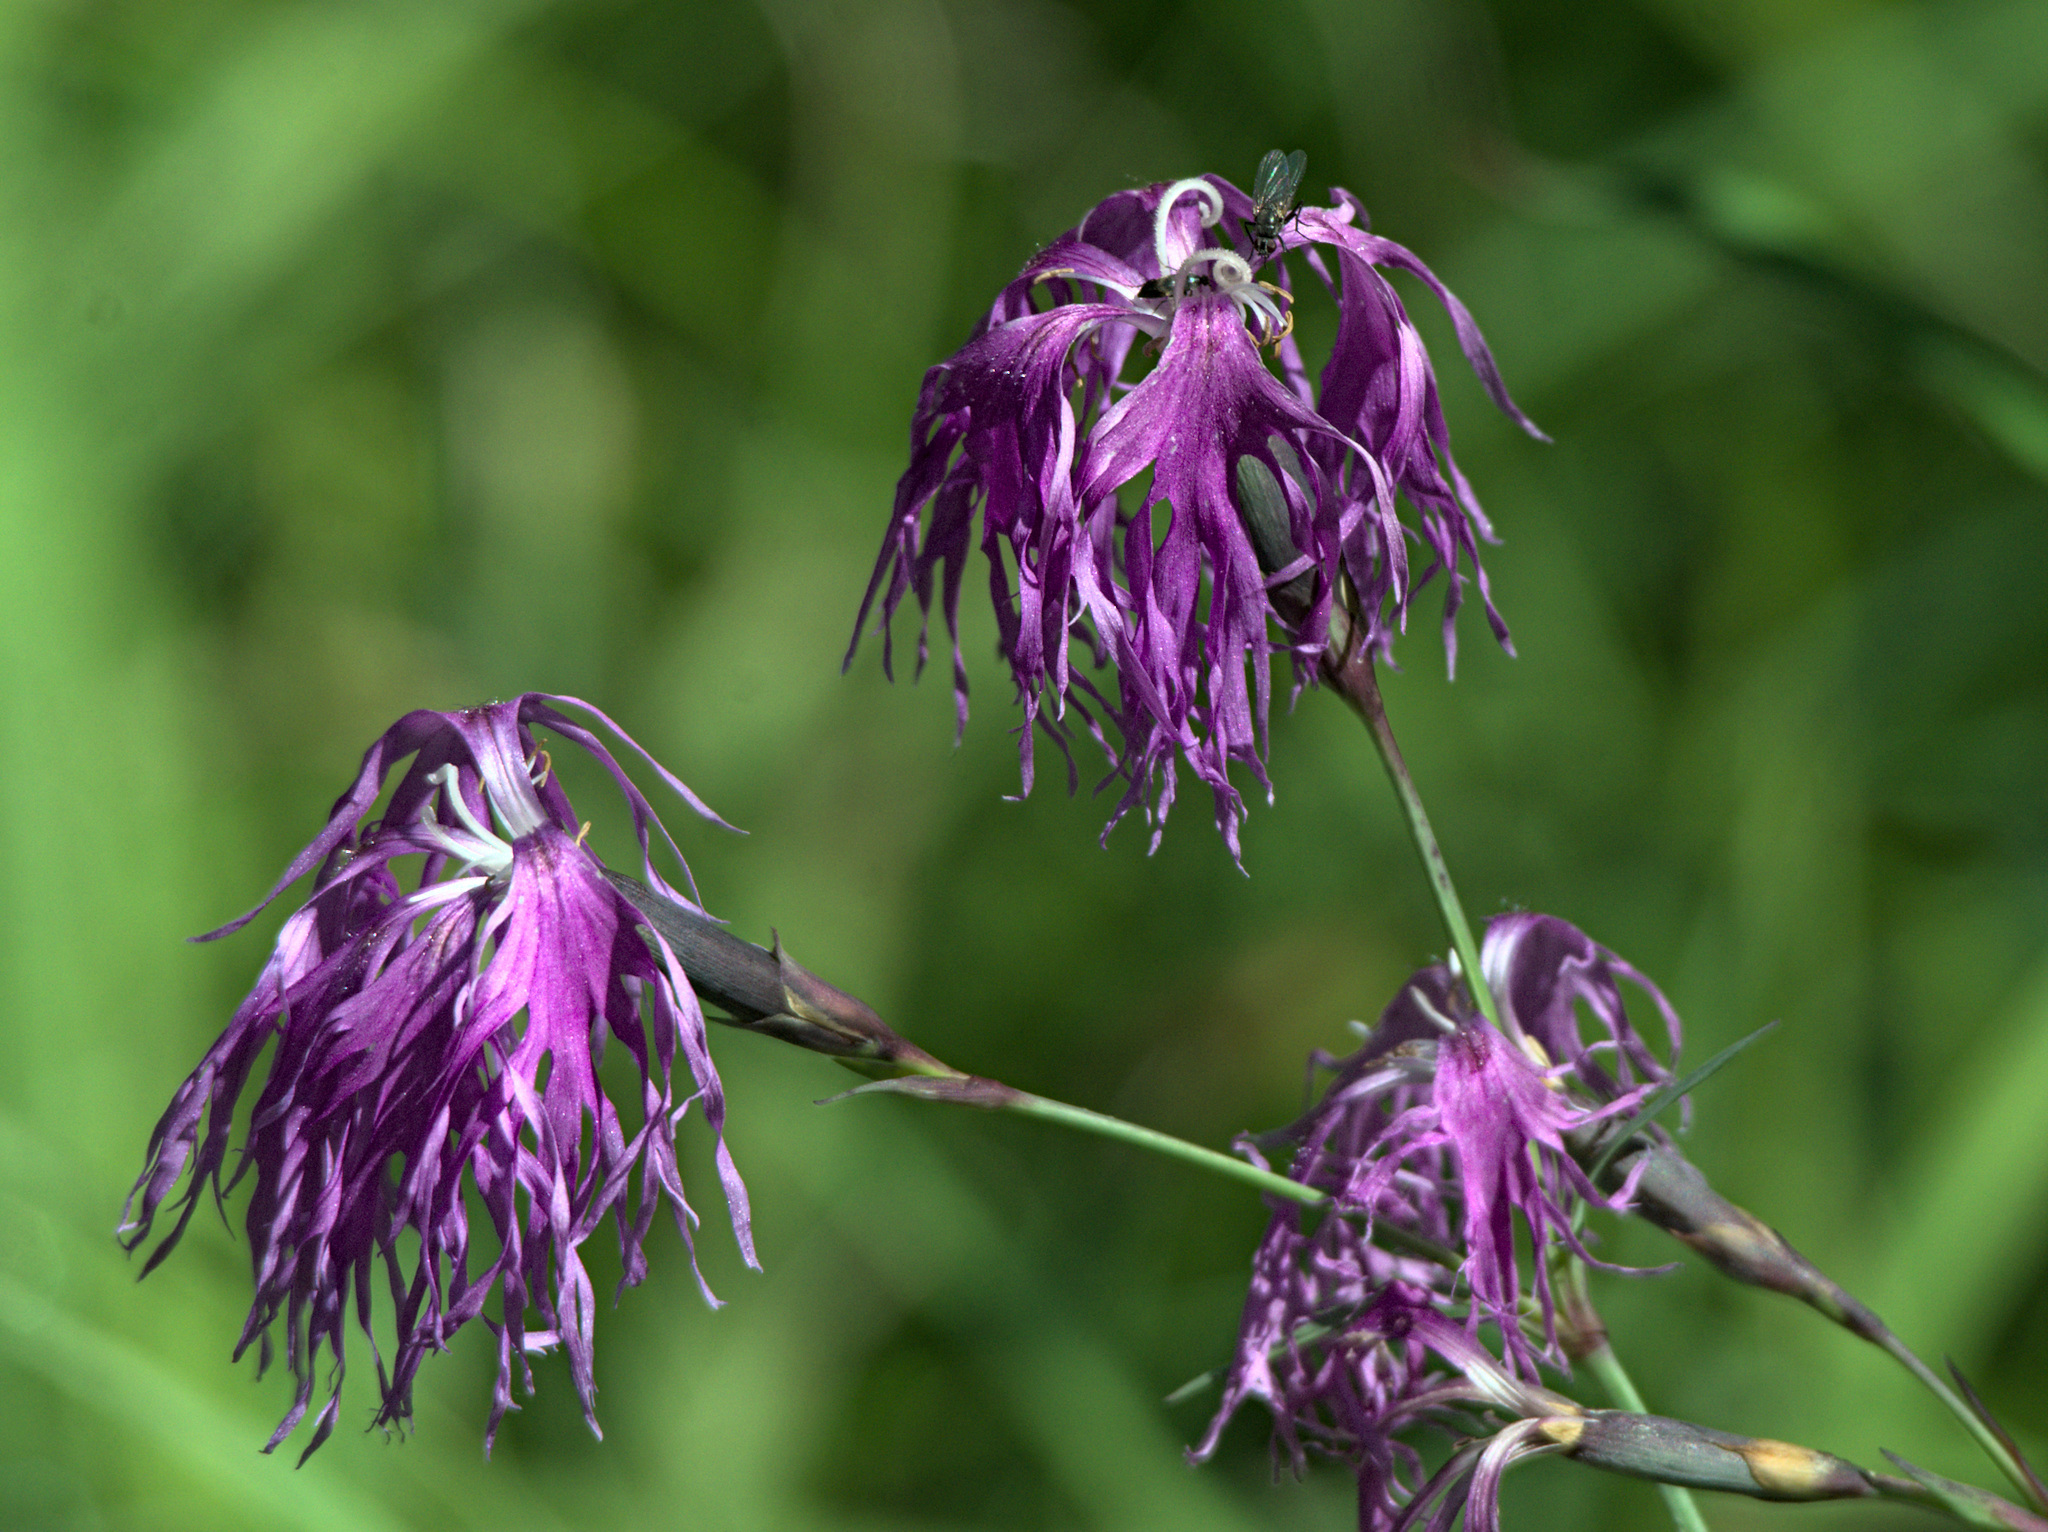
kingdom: Plantae
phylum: Tracheophyta
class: Magnoliopsida
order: Caryophyllales
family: Caryophyllaceae
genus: Dianthus
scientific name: Dianthus superbus
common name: Fringed pink
